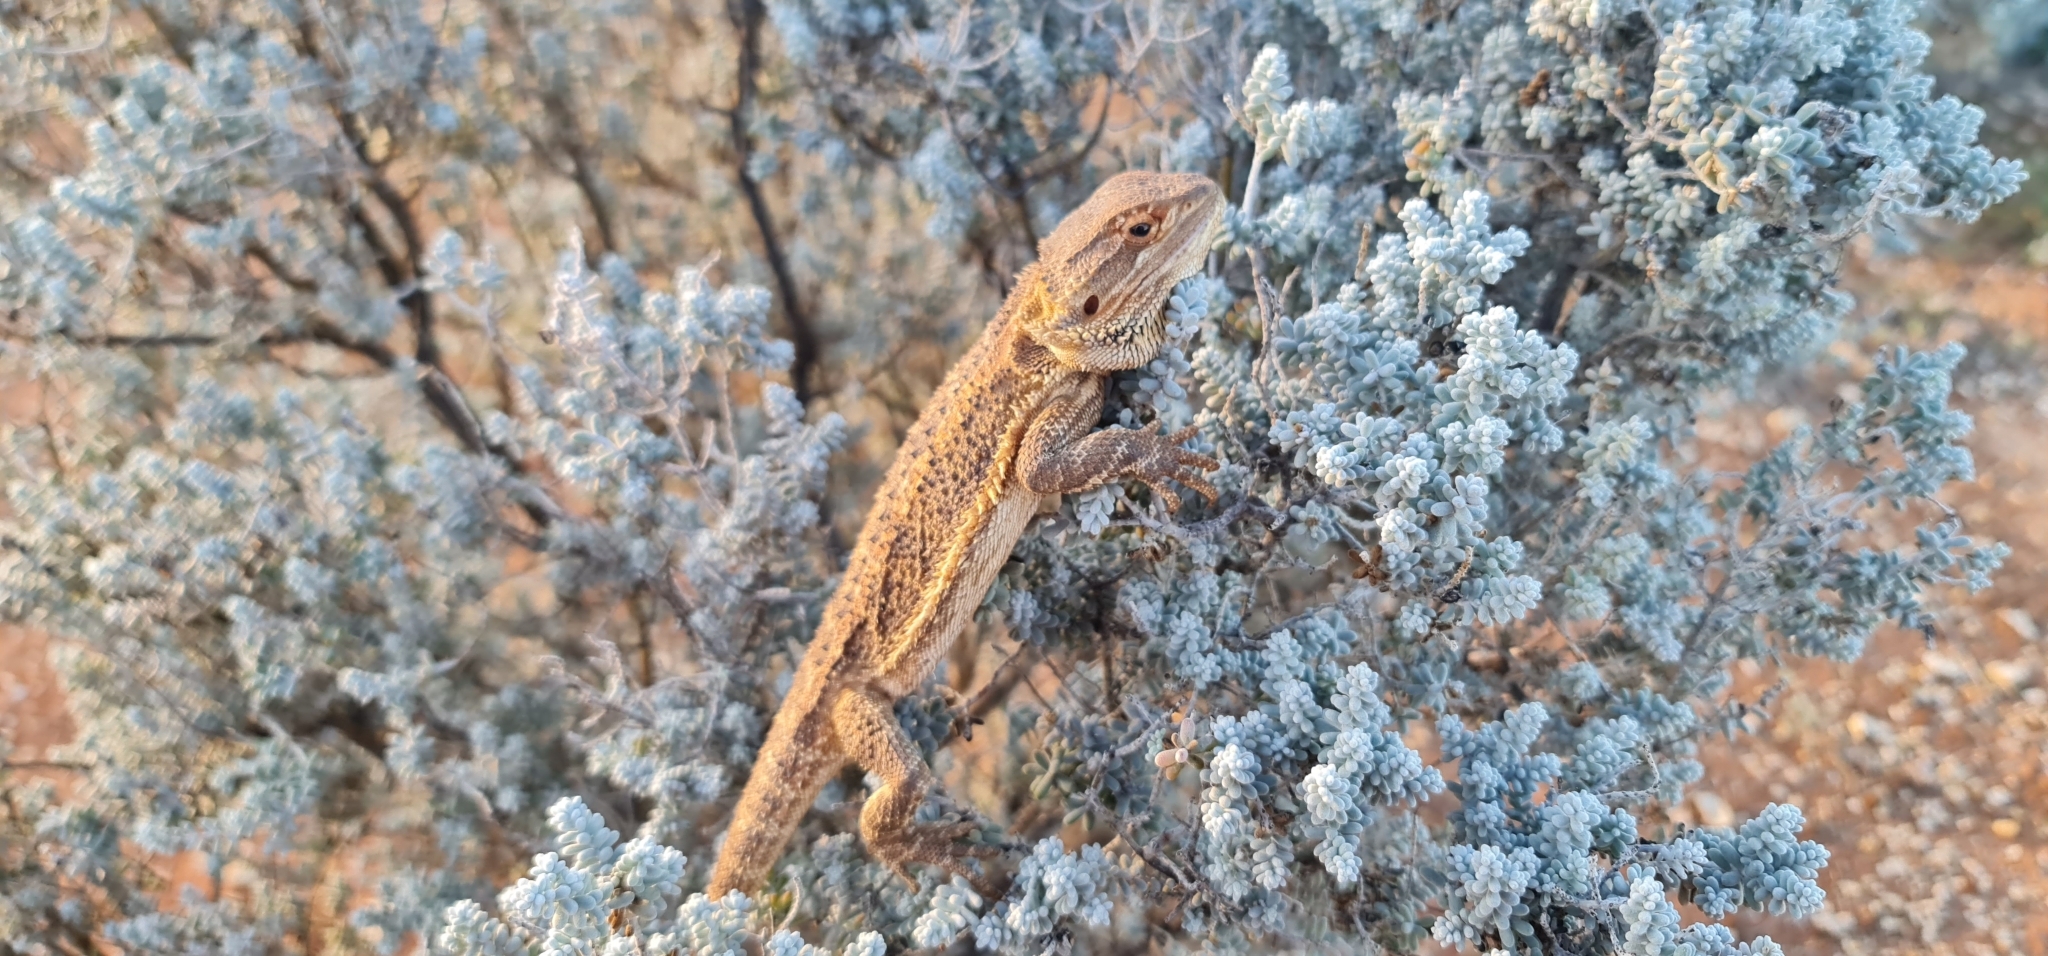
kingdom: Animalia
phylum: Chordata
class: Squamata
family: Agamidae
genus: Pogona
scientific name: Pogona vitticeps
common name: Central bearded dragon
